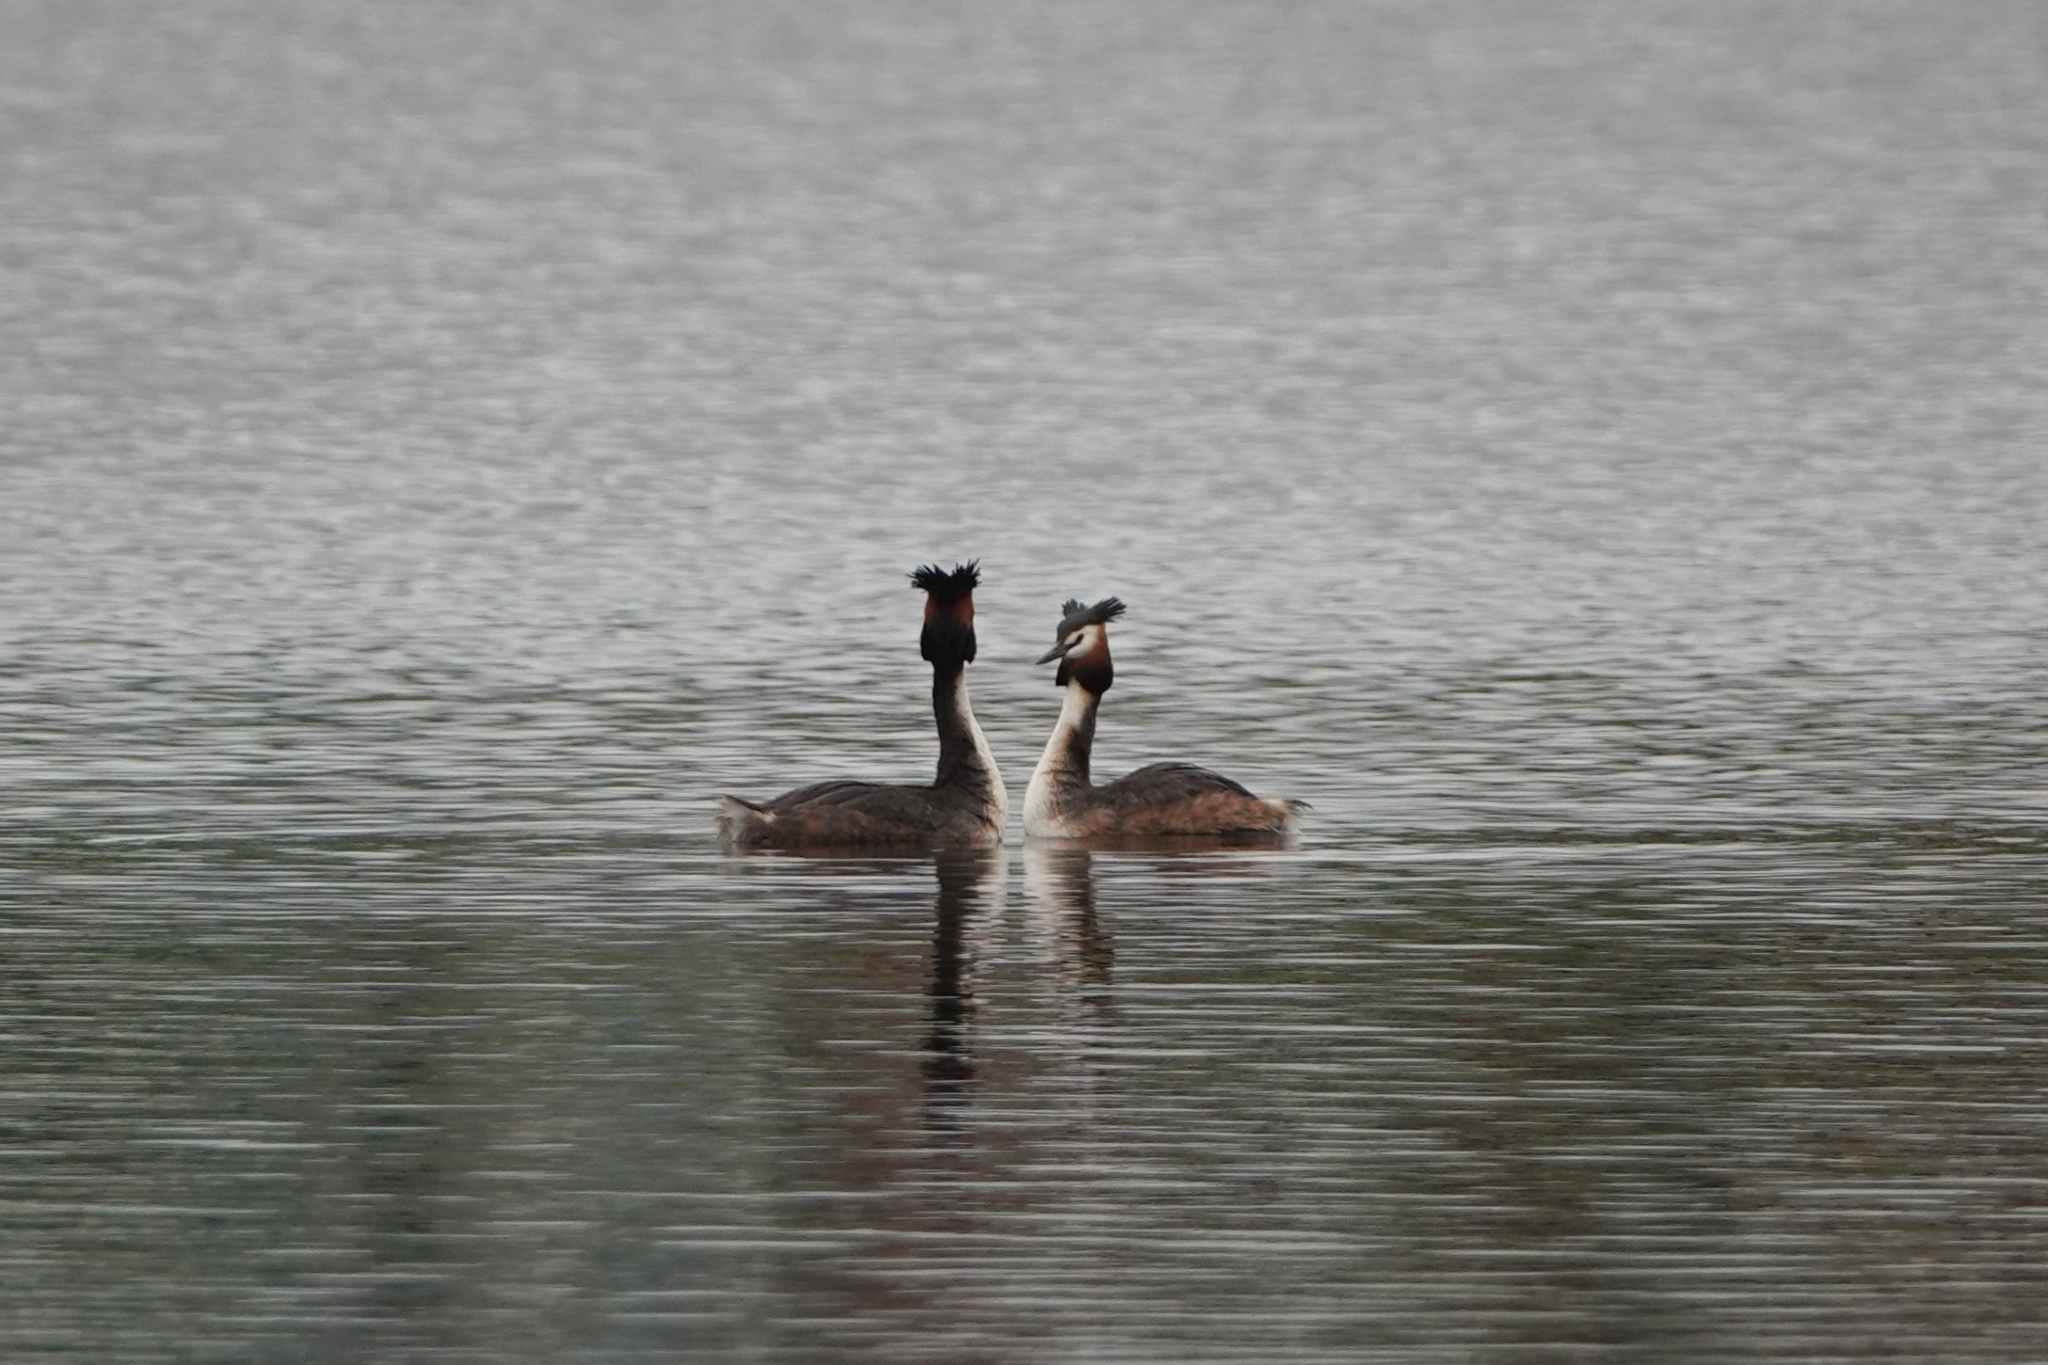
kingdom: Animalia
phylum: Chordata
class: Aves
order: Podicipediformes
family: Podicipedidae
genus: Podiceps
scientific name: Podiceps cristatus
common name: Great crested grebe
